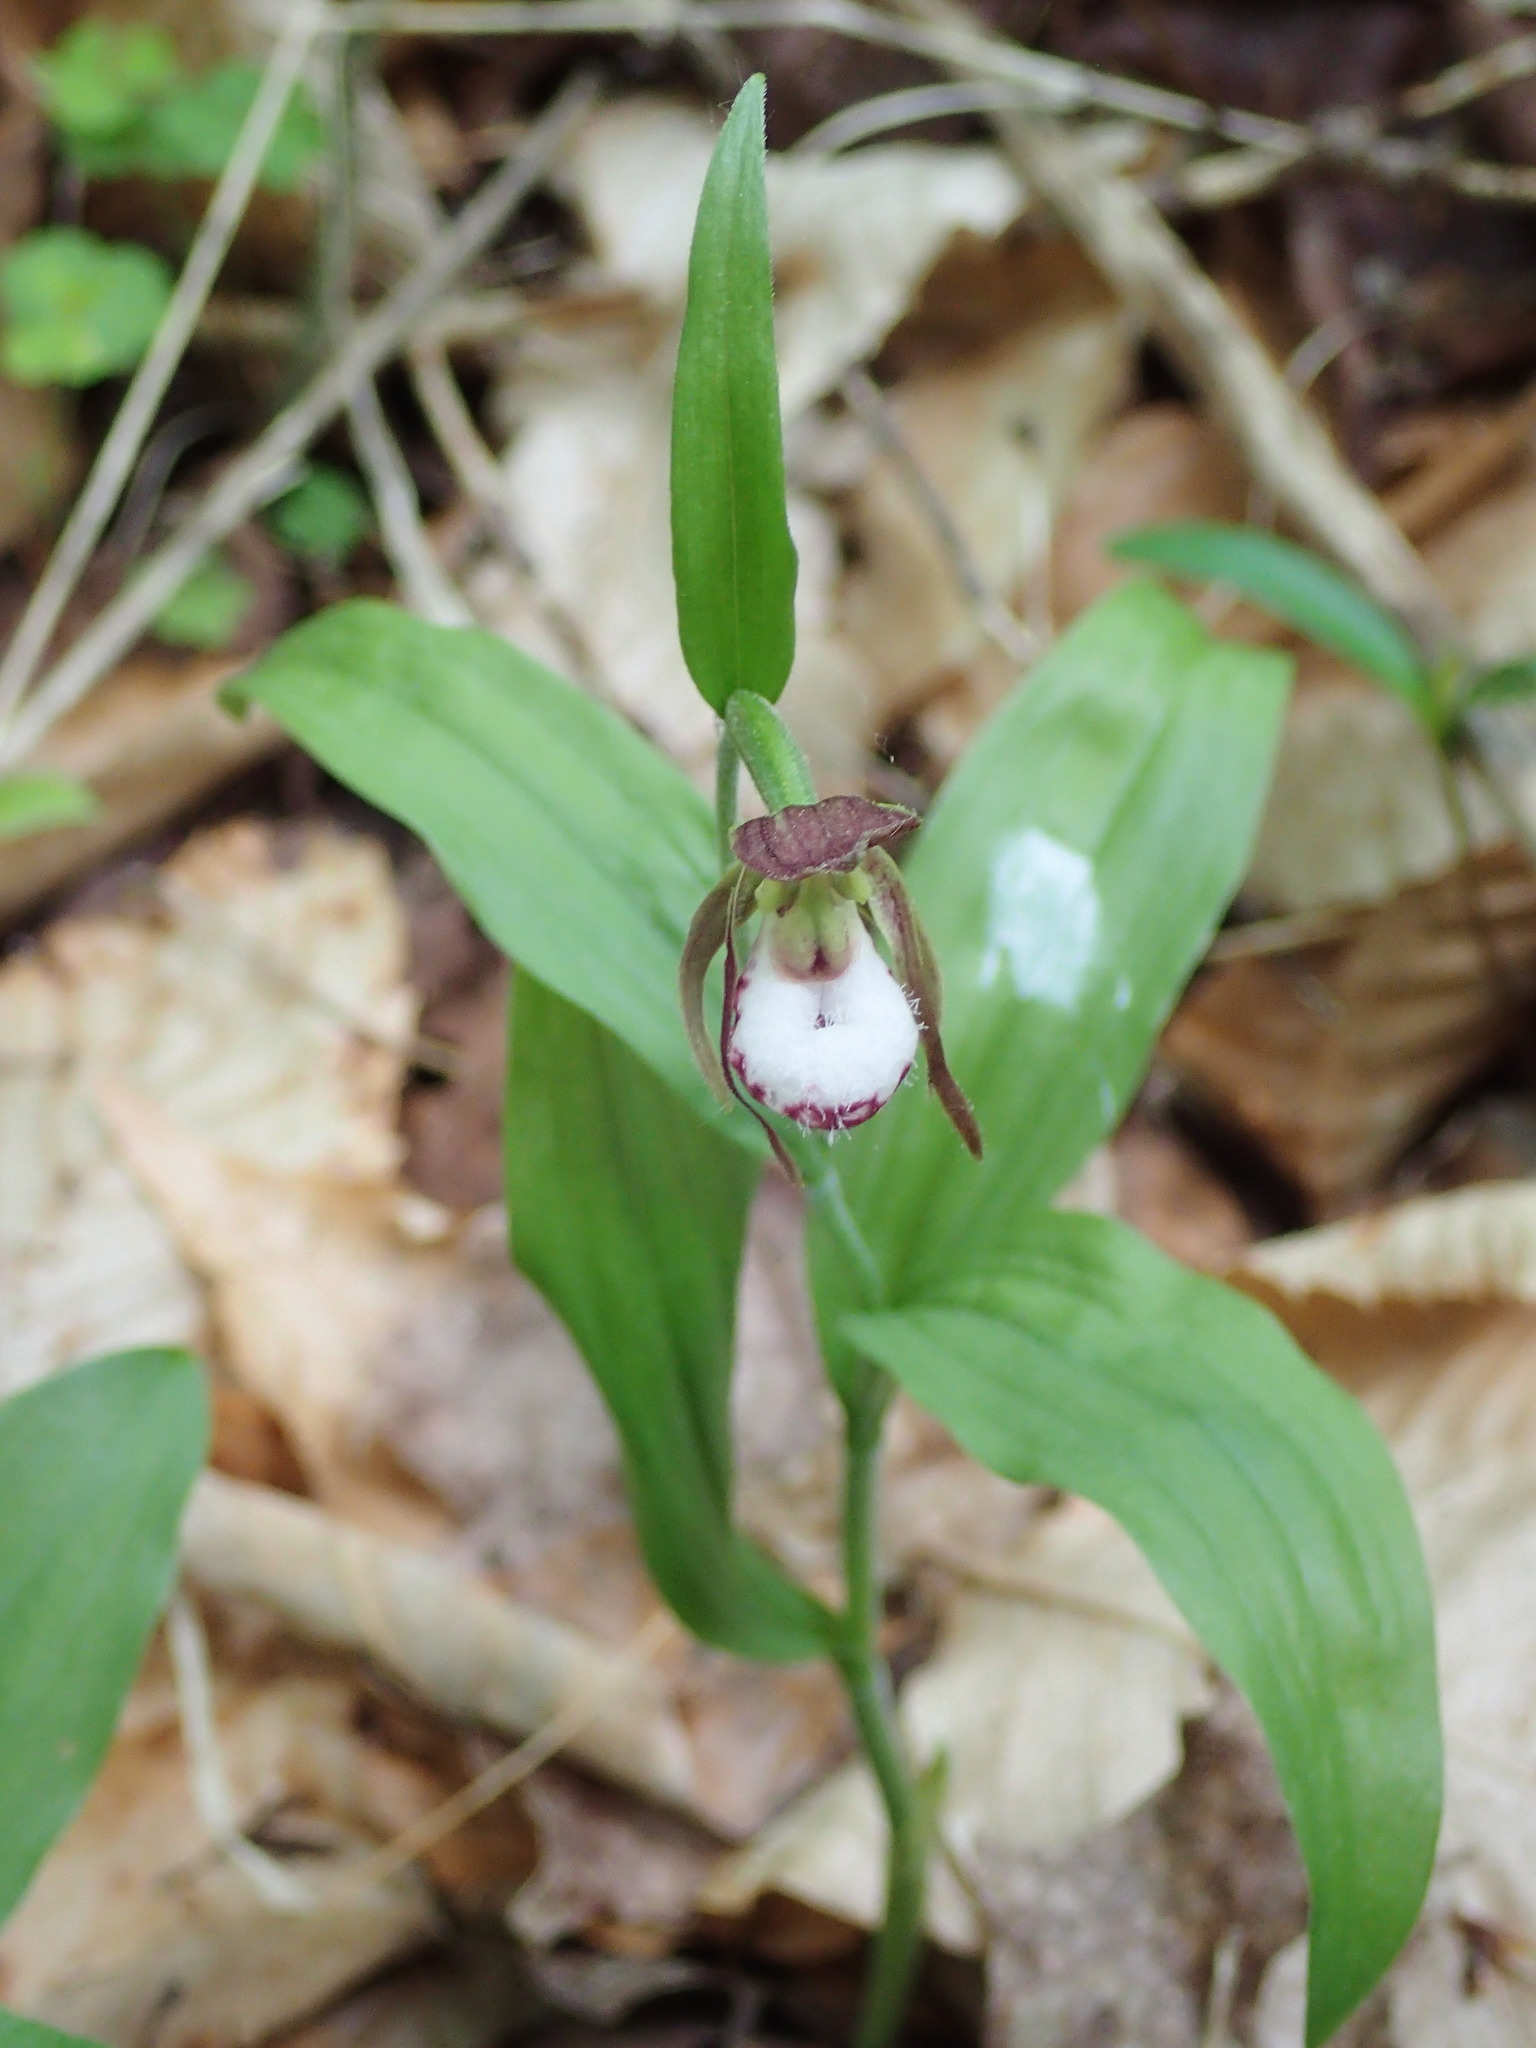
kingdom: Plantae
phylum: Tracheophyta
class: Liliopsida
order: Asparagales
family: Orchidaceae
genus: Cypripedium
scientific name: Cypripedium arietinum
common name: Ram's-head
